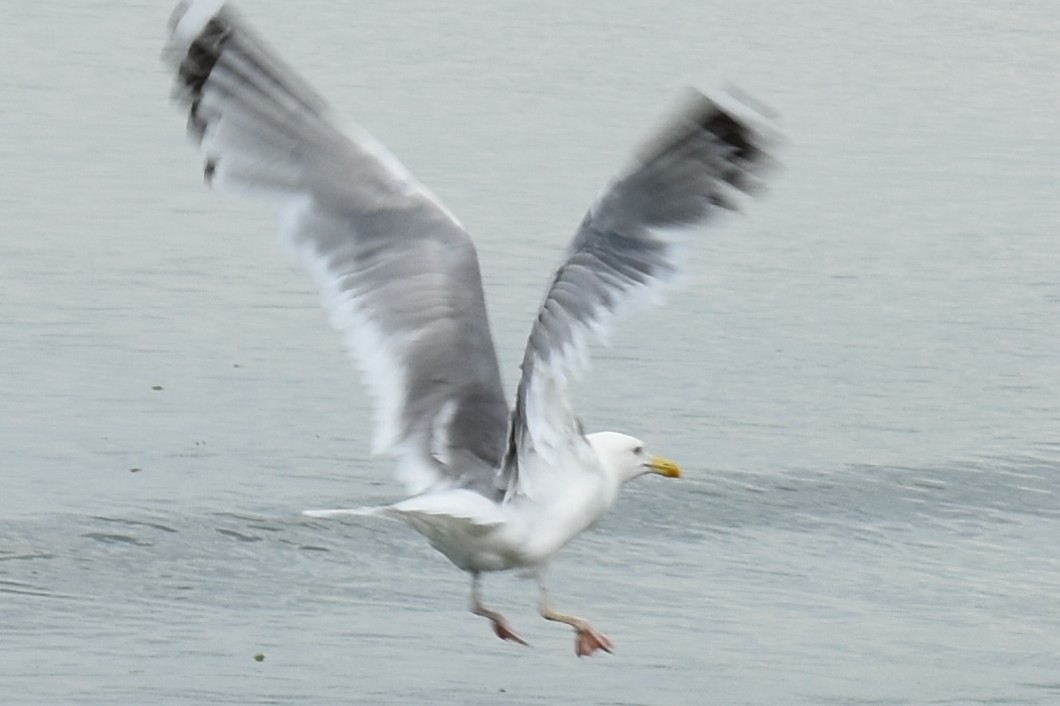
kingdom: Animalia
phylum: Chordata
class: Aves
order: Charadriiformes
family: Laridae
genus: Larus
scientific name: Larus cachinnans
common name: Caspian gull
